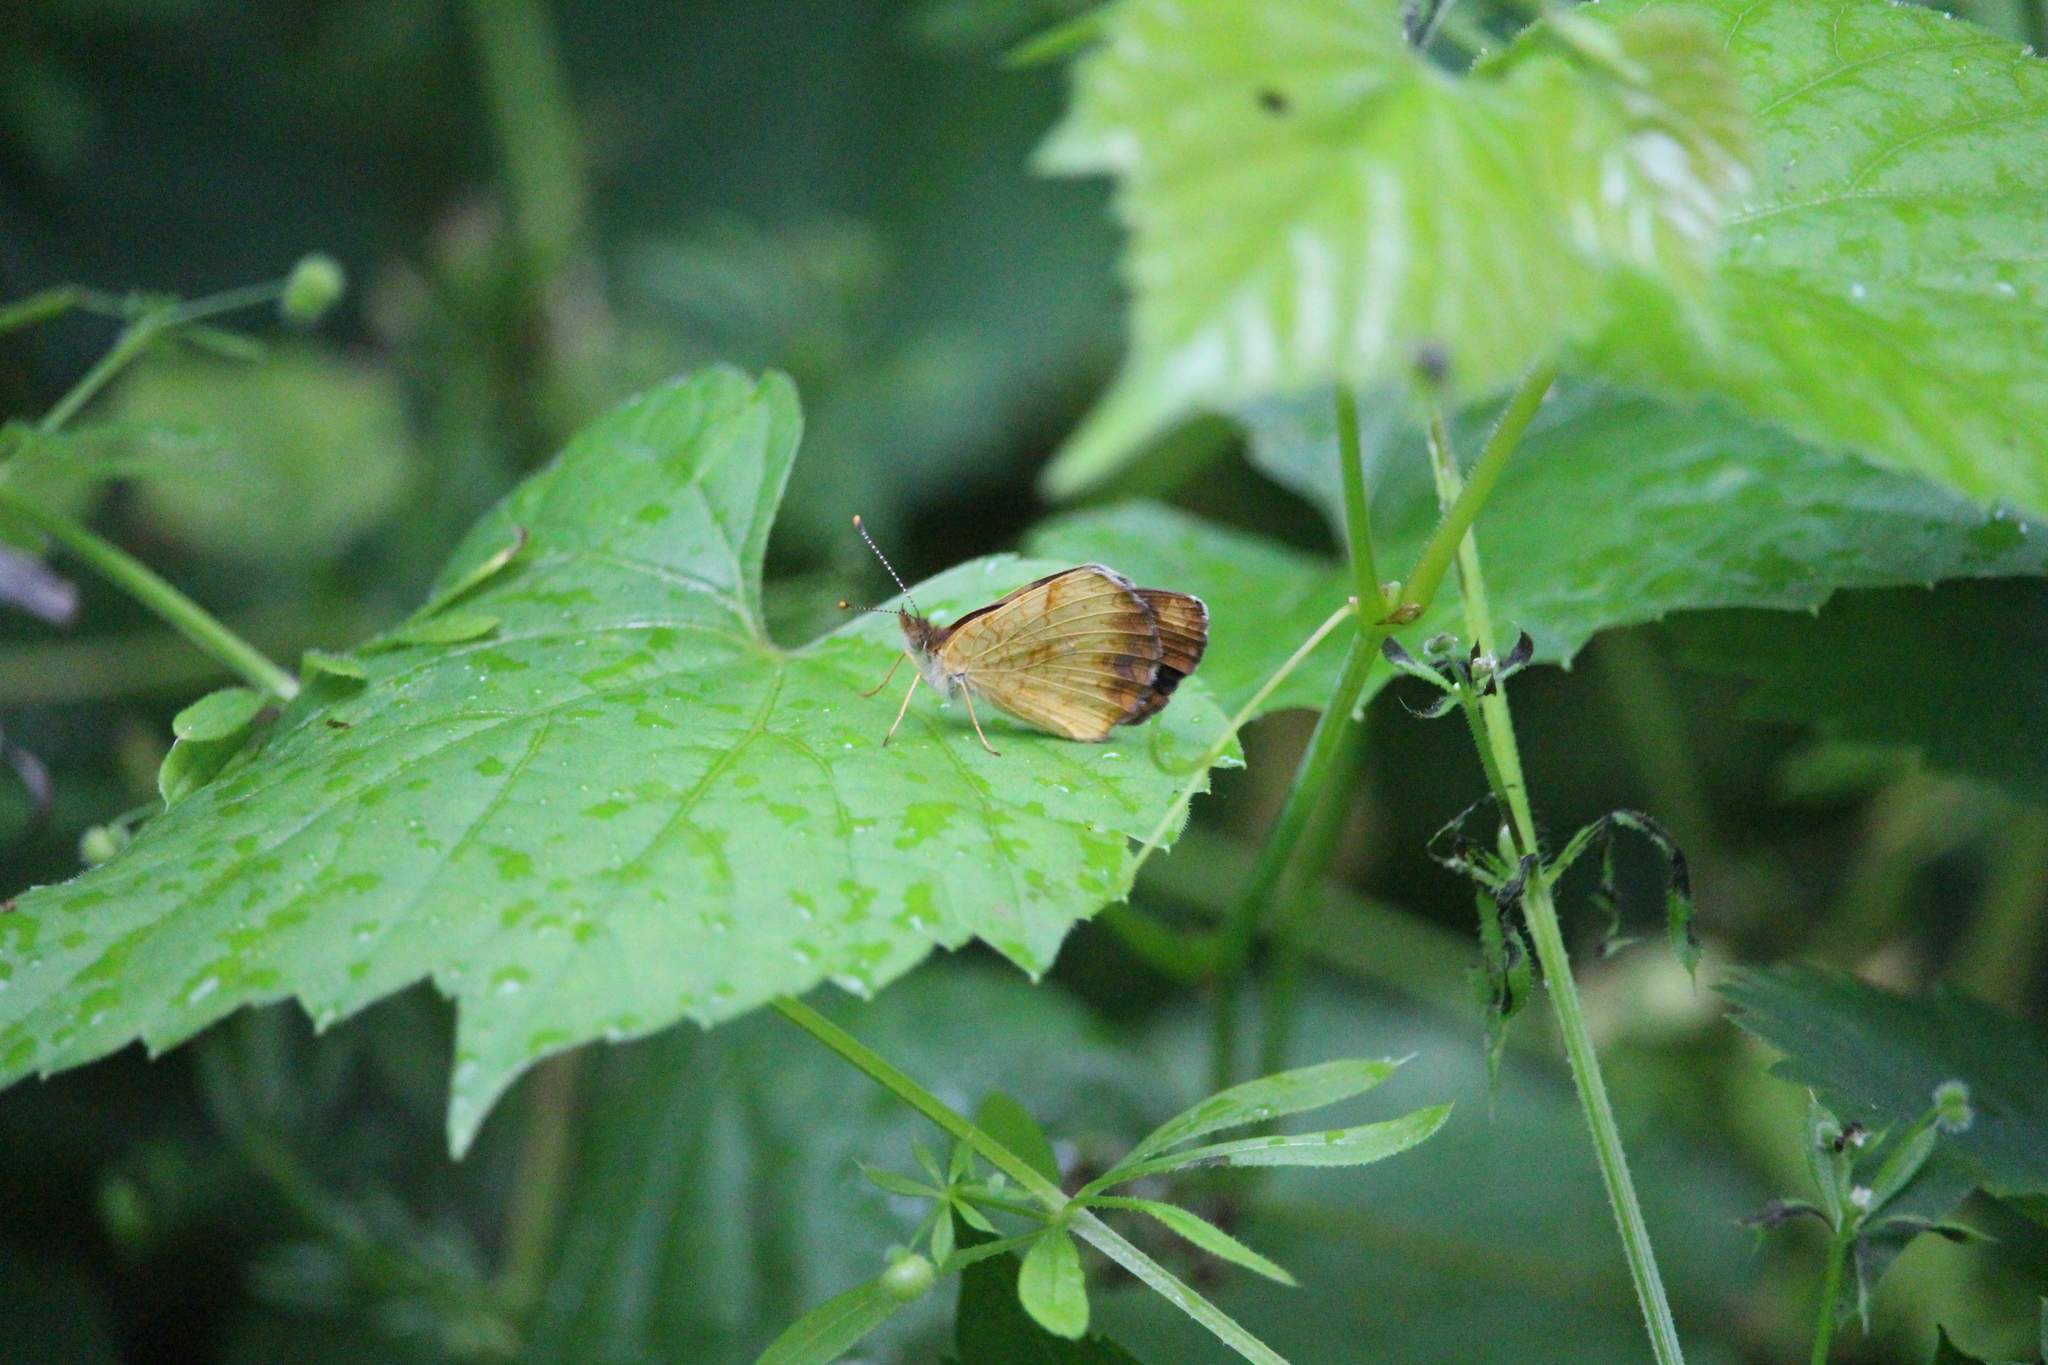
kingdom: Animalia
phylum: Arthropoda
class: Insecta
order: Lepidoptera
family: Nymphalidae
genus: Phyciodes
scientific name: Phyciodes tharos
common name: Pearl crescent
